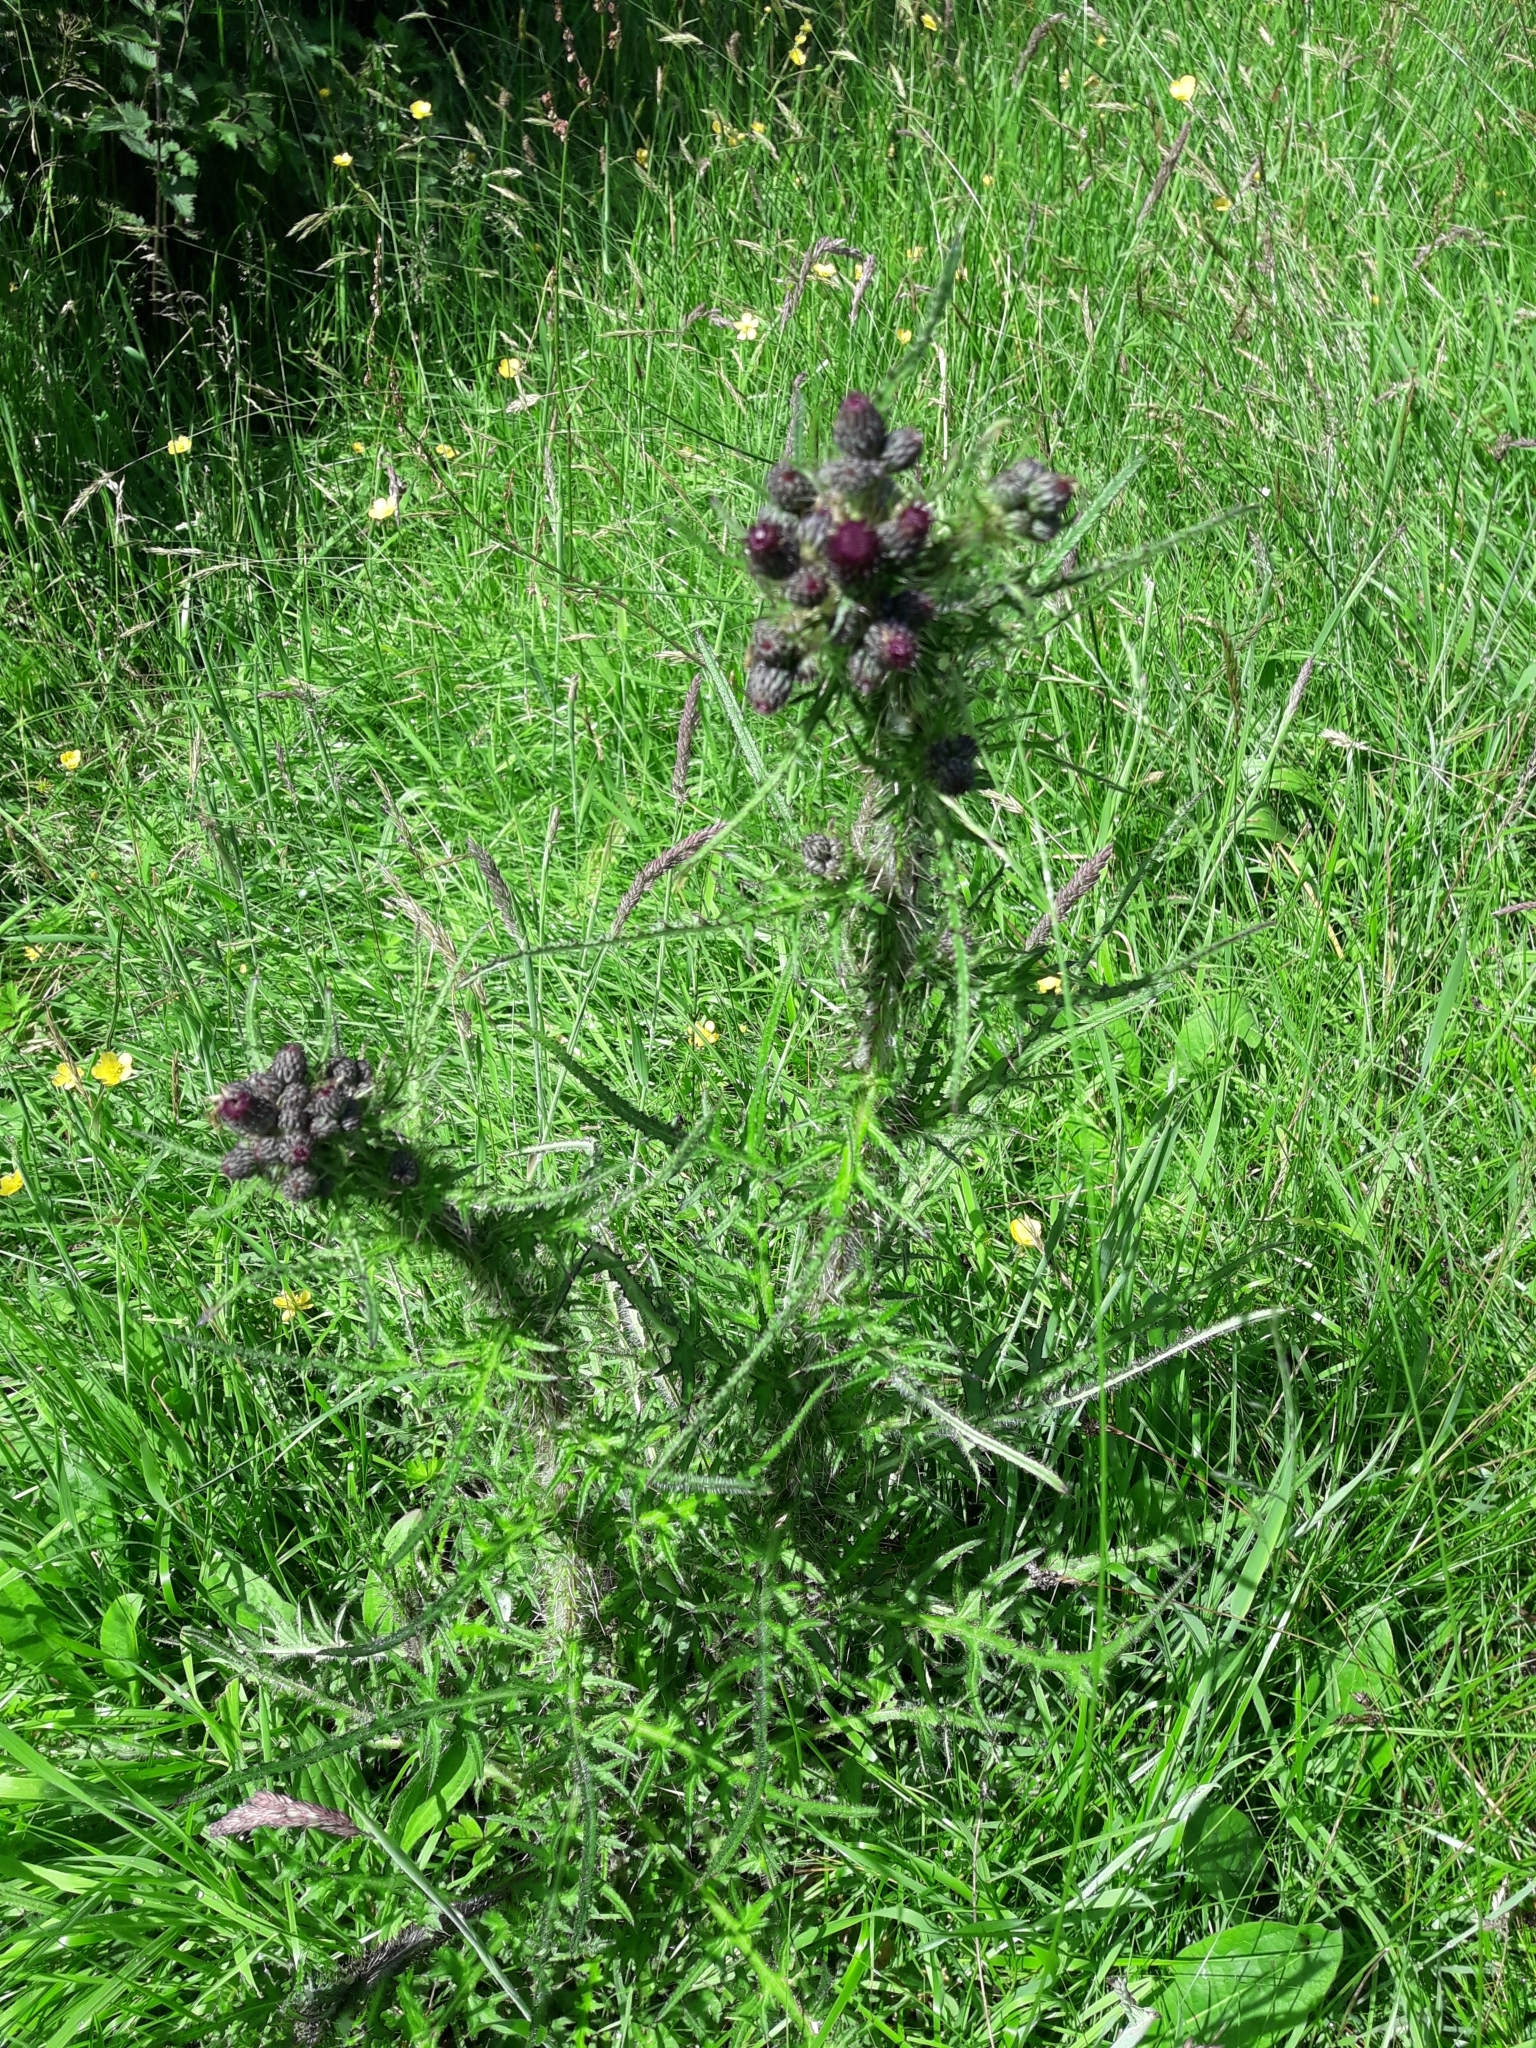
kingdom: Plantae
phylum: Tracheophyta
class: Magnoliopsida
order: Asterales
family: Asteraceae
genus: Cirsium
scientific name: Cirsium palustre
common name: Marsh thistle
